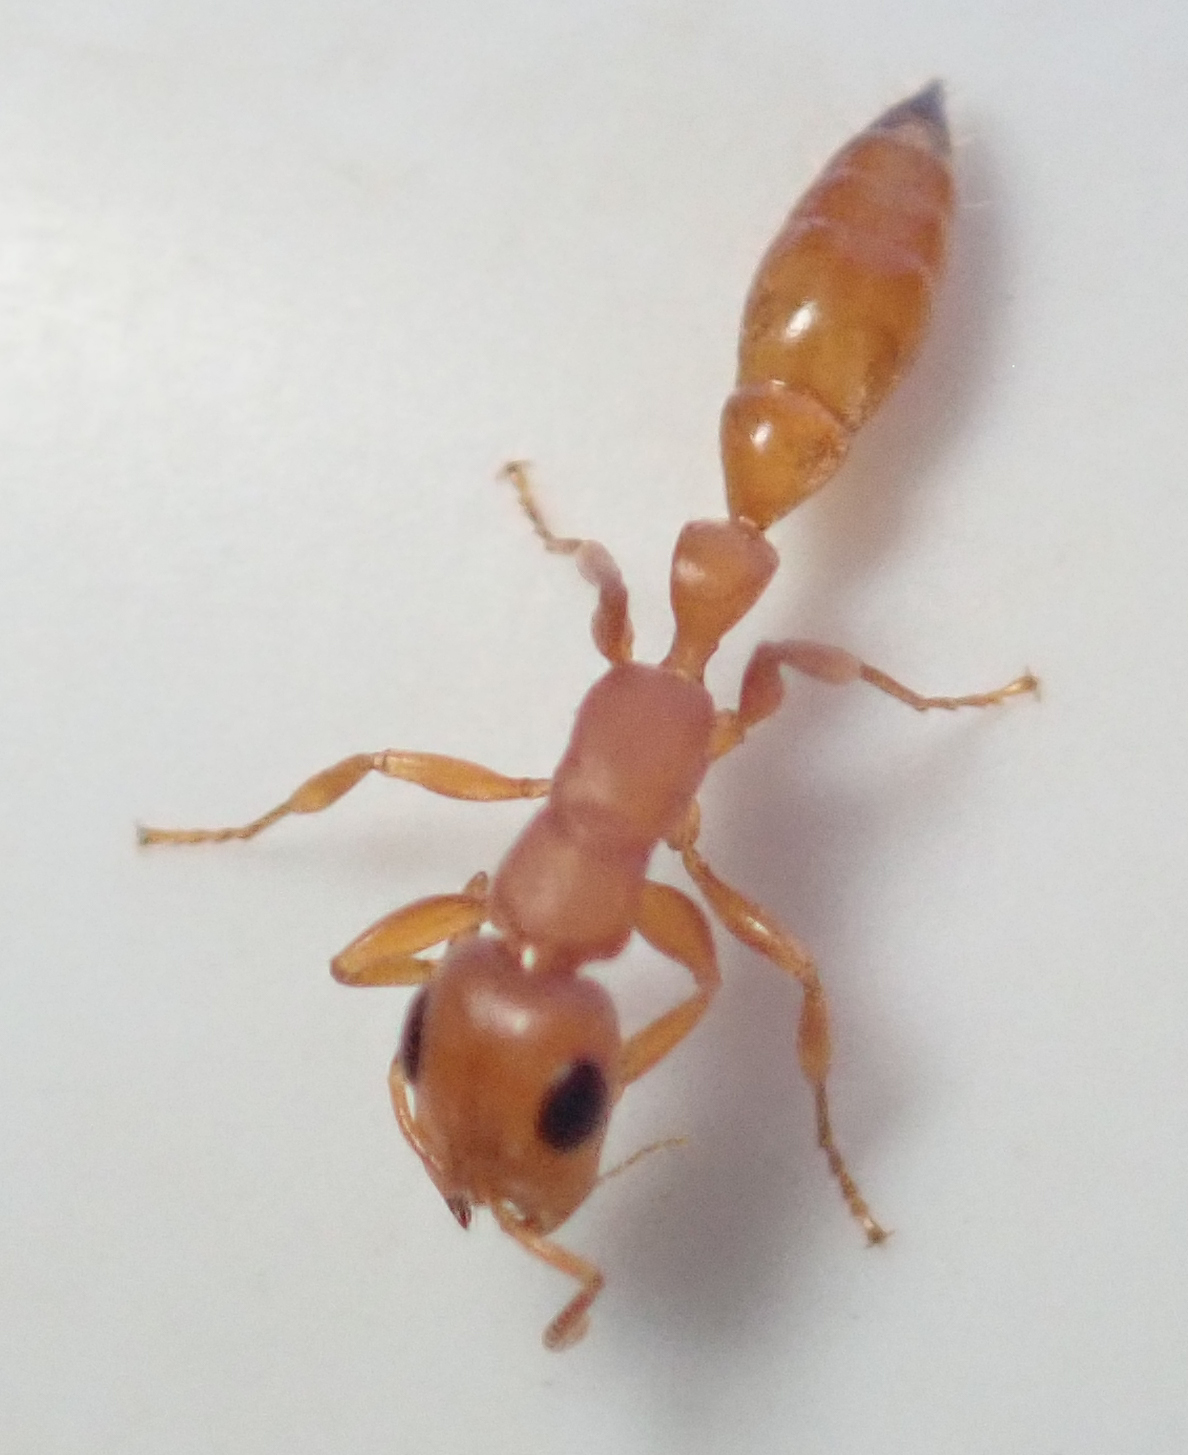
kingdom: Animalia
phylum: Arthropoda
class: Insecta
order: Hymenoptera
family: Formicidae
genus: Tetraponera
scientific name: Tetraponera natalensis
